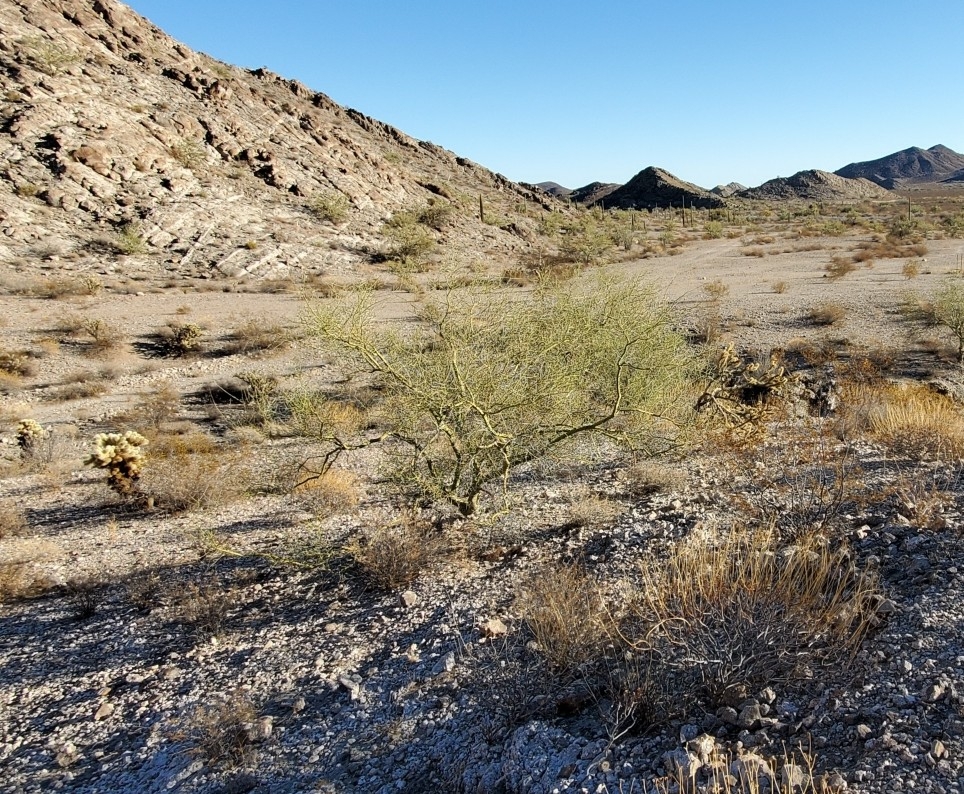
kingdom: Plantae
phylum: Tracheophyta
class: Magnoliopsida
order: Fabales
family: Fabaceae
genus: Parkinsonia
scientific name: Parkinsonia microphylla
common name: Yellow paloverde
